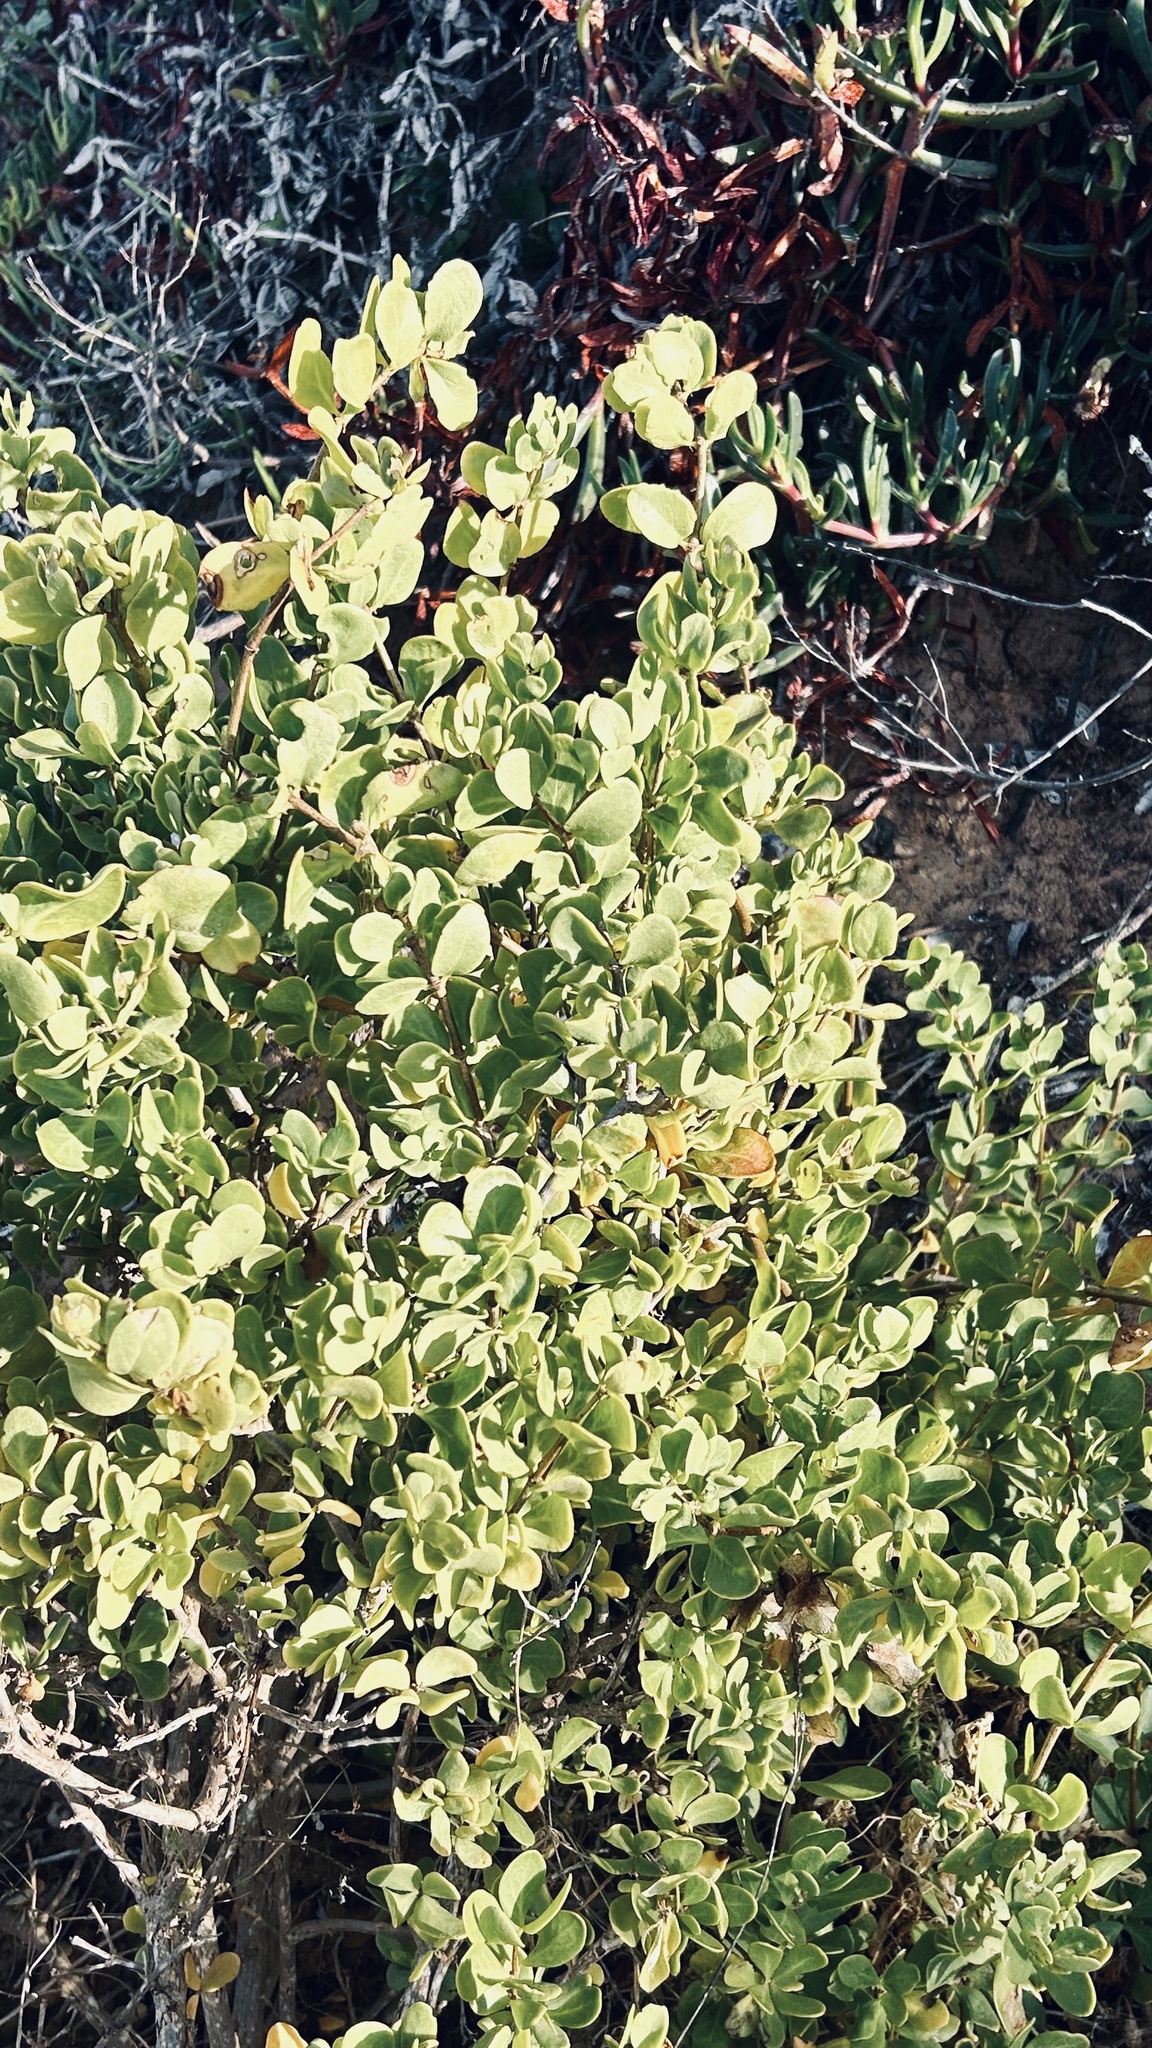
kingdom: Plantae
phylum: Tracheophyta
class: Magnoliopsida
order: Zygophyllales
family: Zygophyllaceae
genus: Roepera
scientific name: Roepera morgsana
